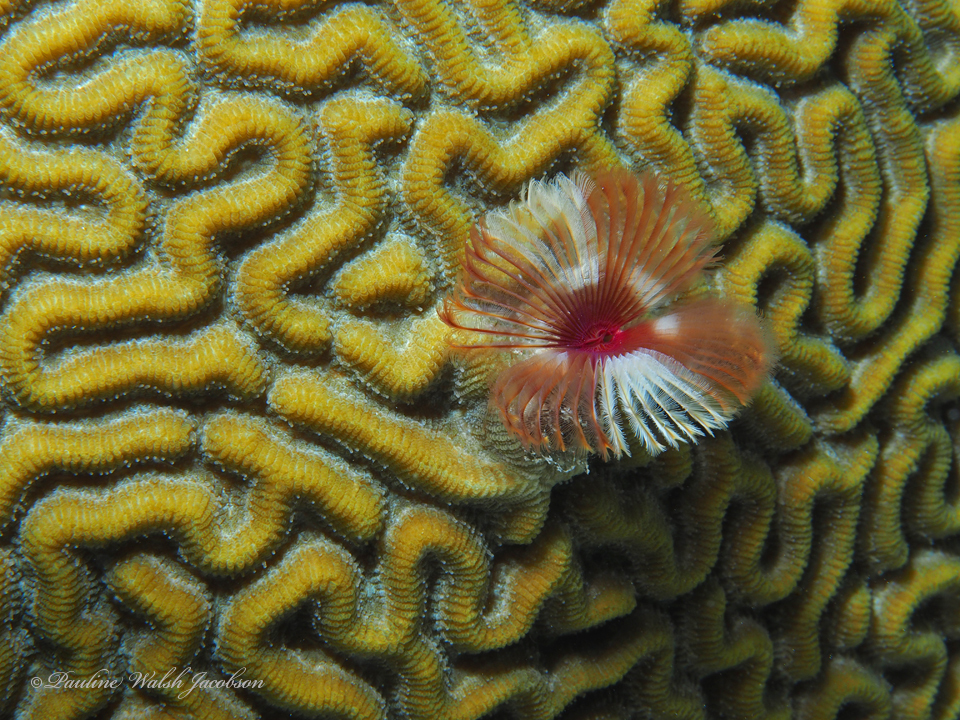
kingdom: Animalia
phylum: Annelida
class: Polychaeta
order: Sabellida
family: Sabellidae
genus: Anamobaea
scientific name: Anamobaea orstedii
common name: Split-crown feather duster
